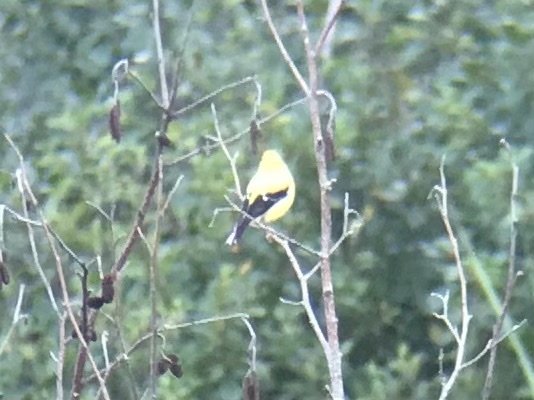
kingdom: Animalia
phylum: Chordata
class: Aves
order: Passeriformes
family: Fringillidae
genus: Spinus
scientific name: Spinus tristis
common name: American goldfinch
